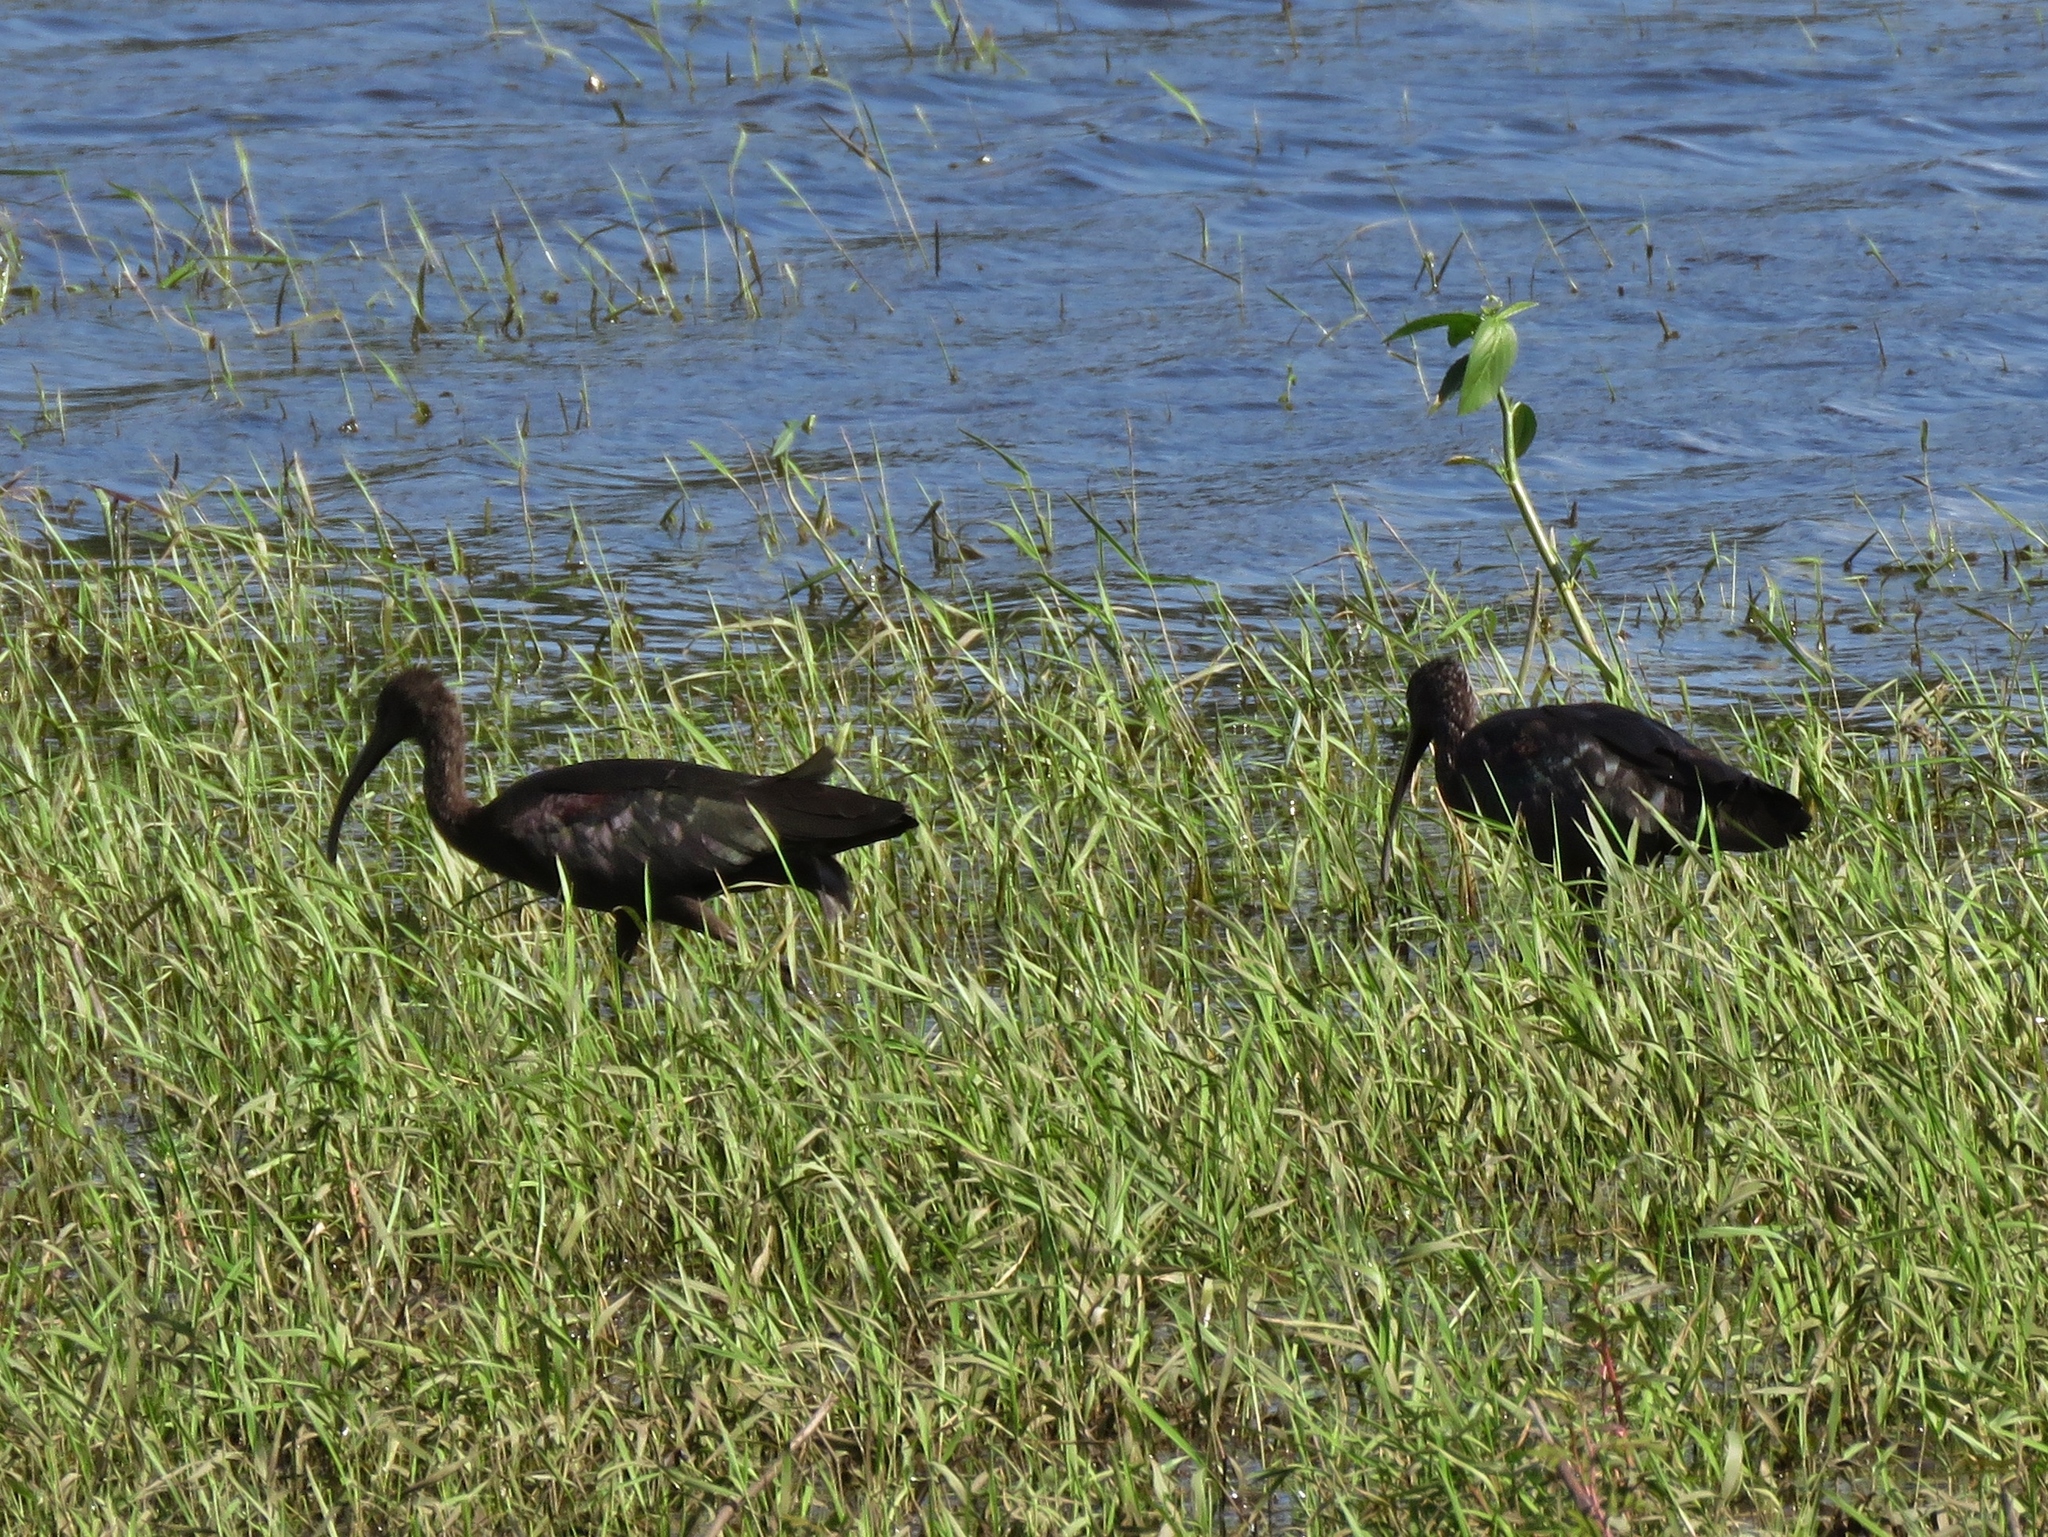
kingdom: Animalia
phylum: Chordata
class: Aves
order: Pelecaniformes
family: Threskiornithidae
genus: Plegadis
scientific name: Plegadis falcinellus
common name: Glossy ibis
